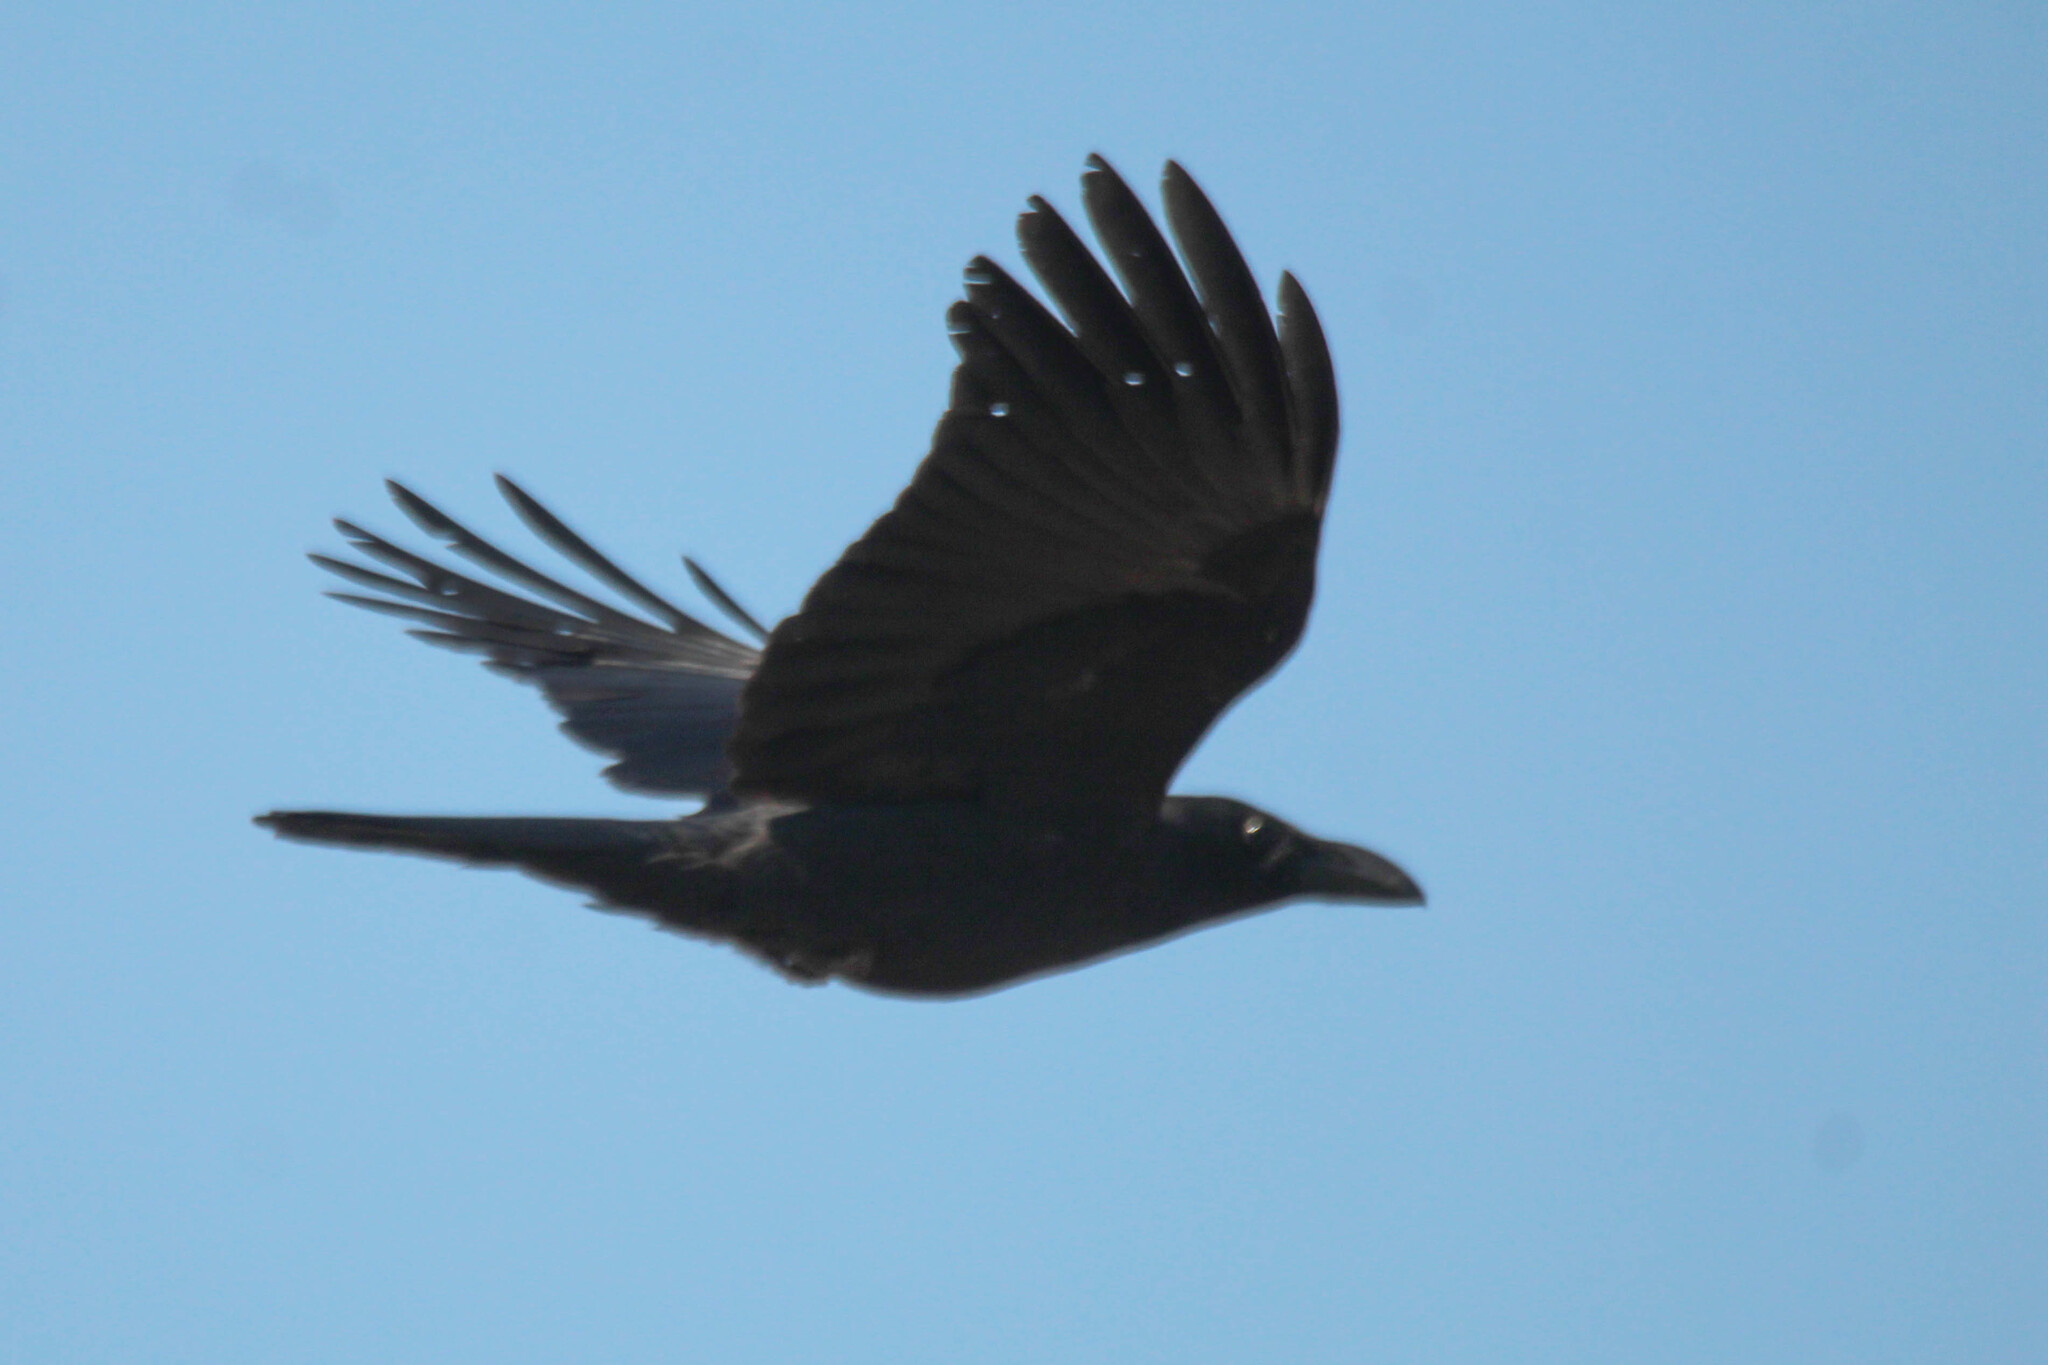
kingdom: Animalia
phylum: Chordata
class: Aves
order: Passeriformes
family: Corvidae
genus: Corvus
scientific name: Corvus macrorhynchos
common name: Large-billed crow
